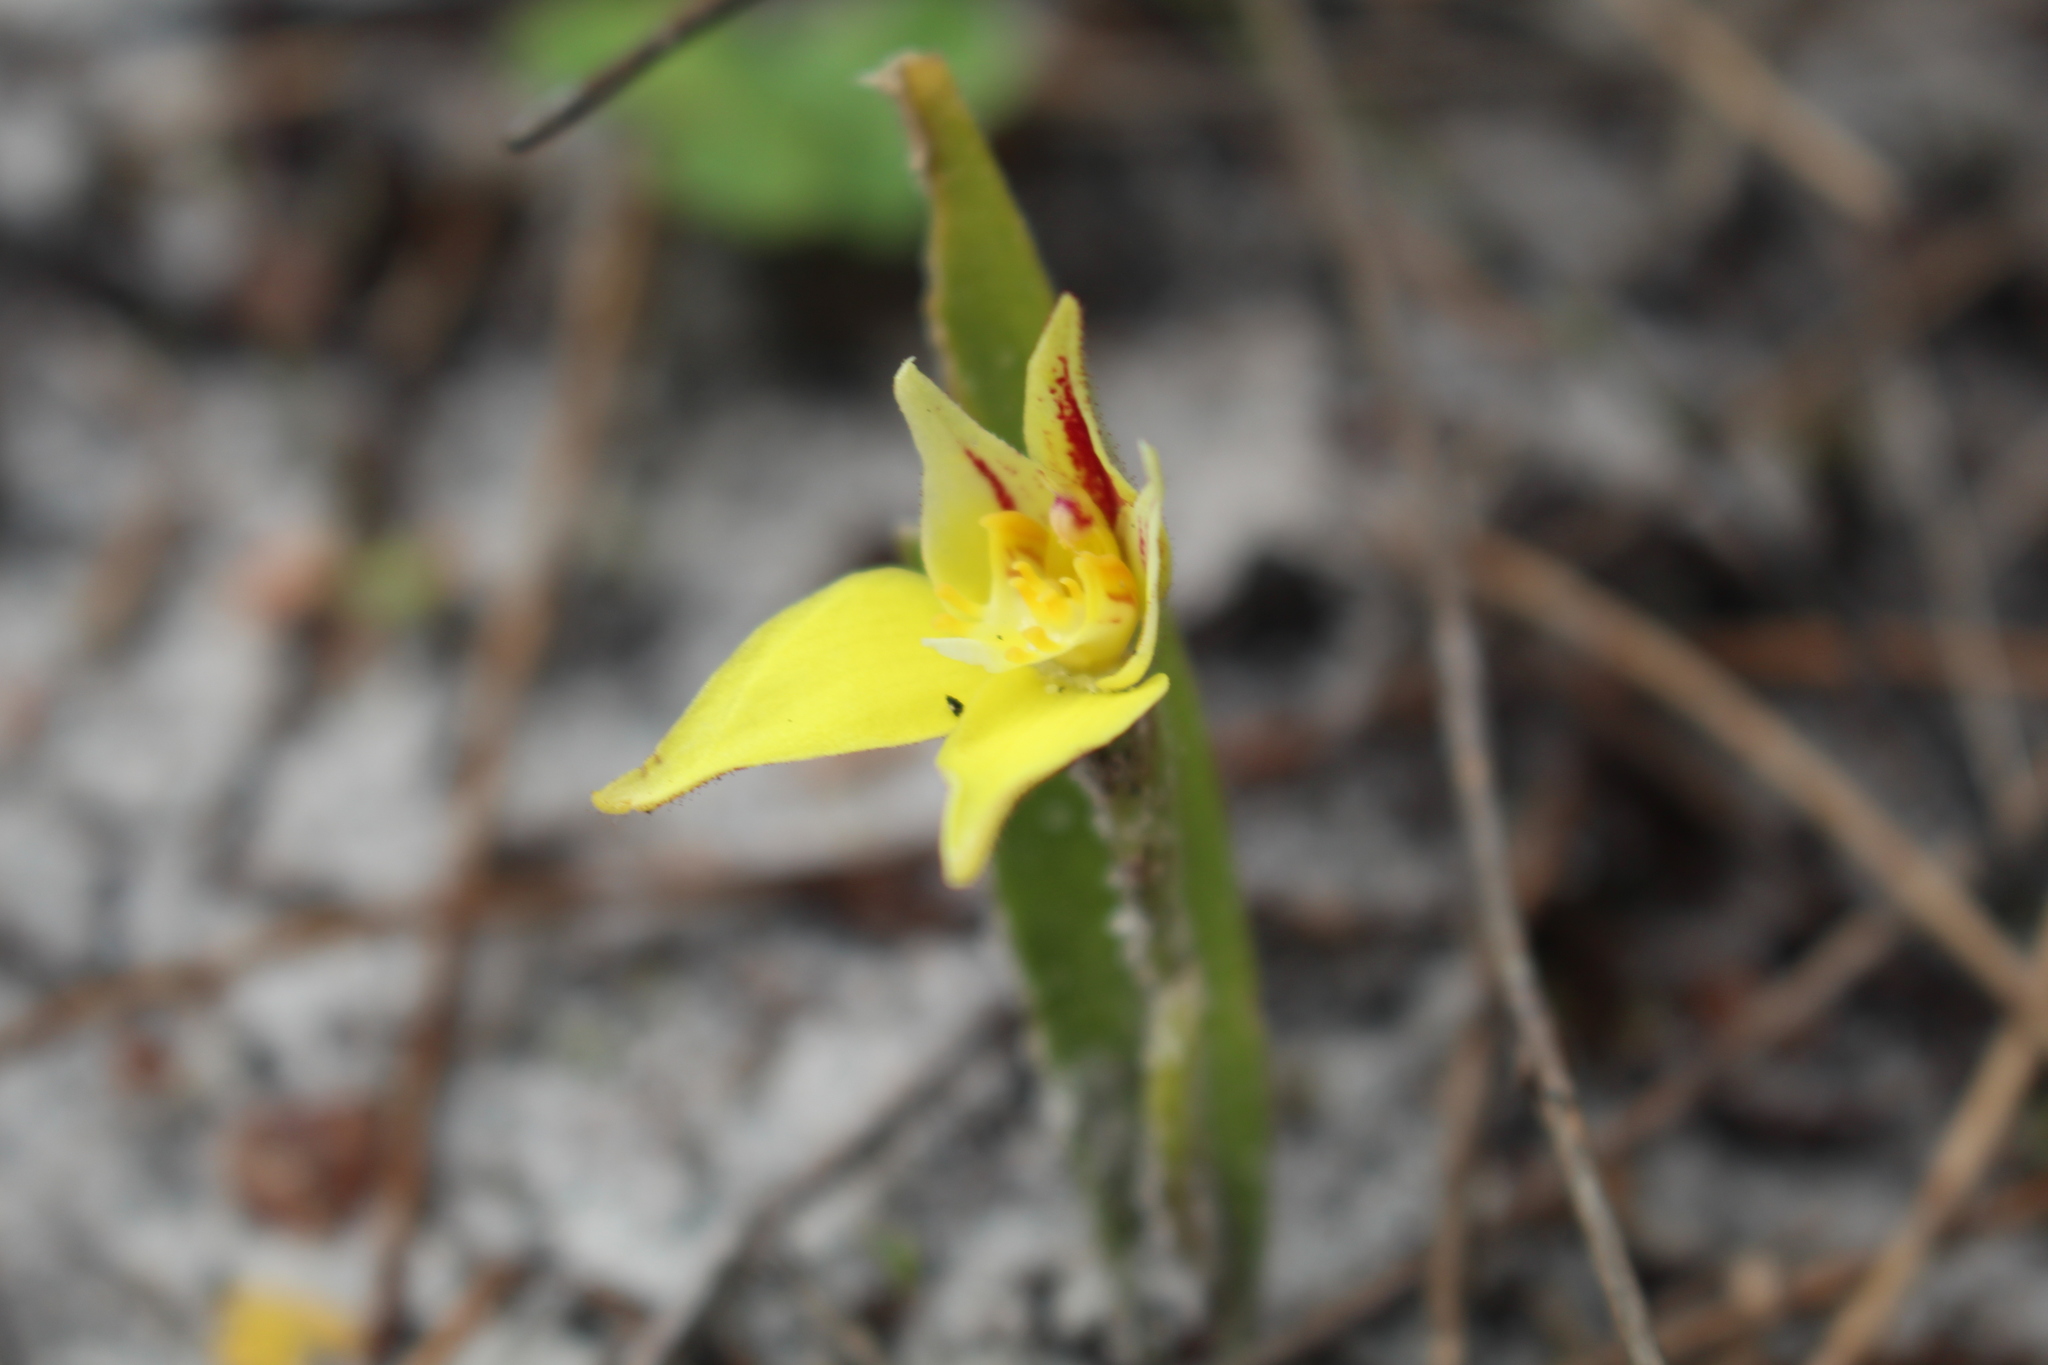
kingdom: Plantae
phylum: Tracheophyta
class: Liliopsida
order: Asparagales
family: Orchidaceae
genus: Caladenia
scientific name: Caladenia flava
